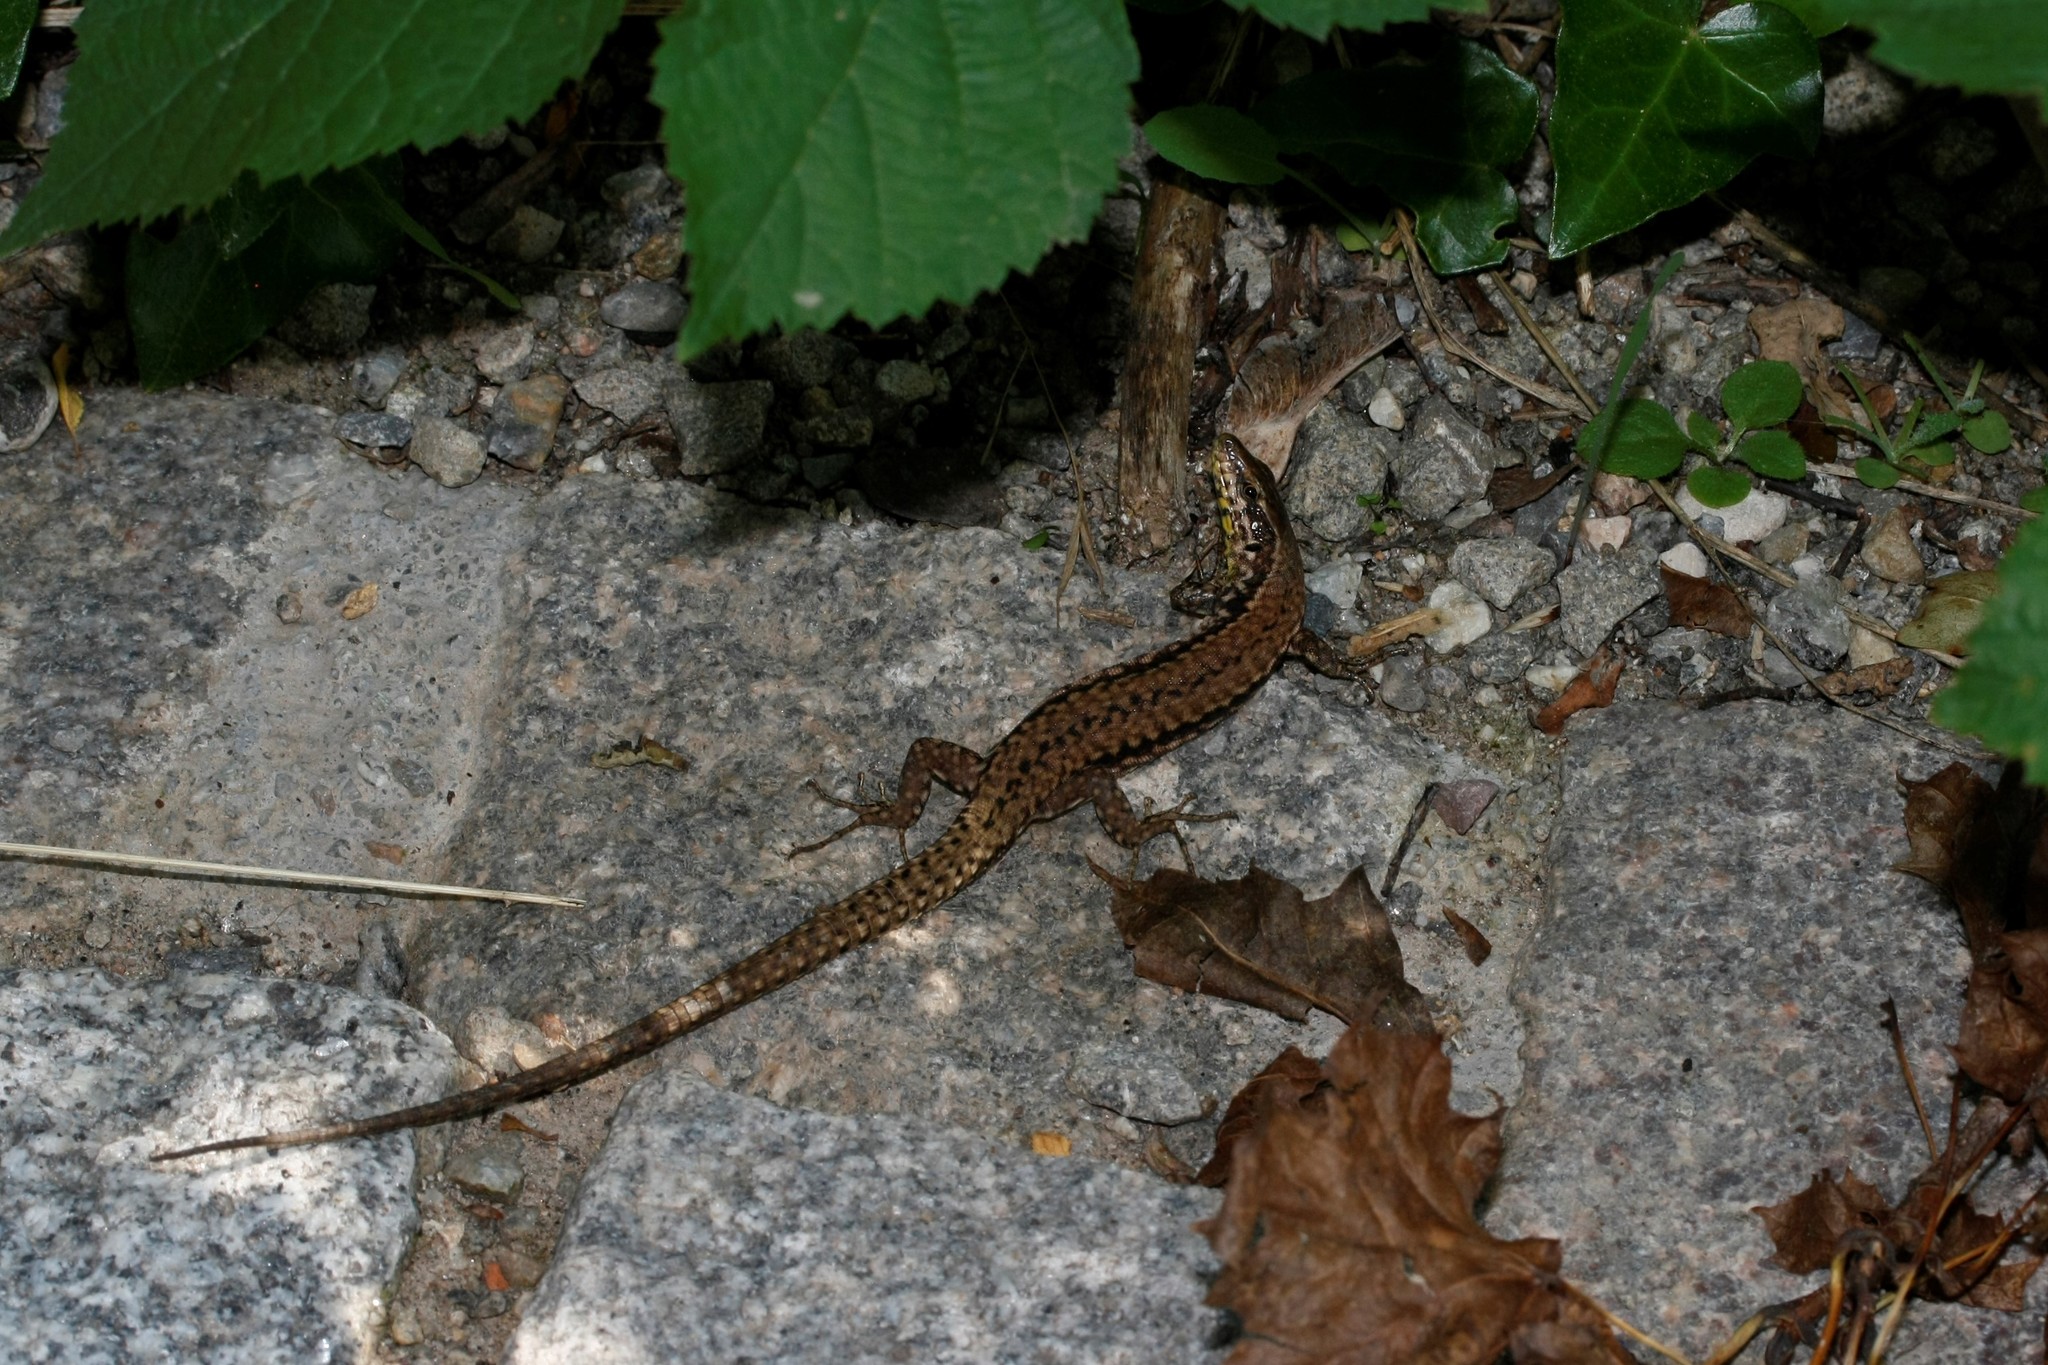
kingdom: Animalia
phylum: Chordata
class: Squamata
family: Lacertidae
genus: Podarcis
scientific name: Podarcis muralis
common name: Common wall lizard
